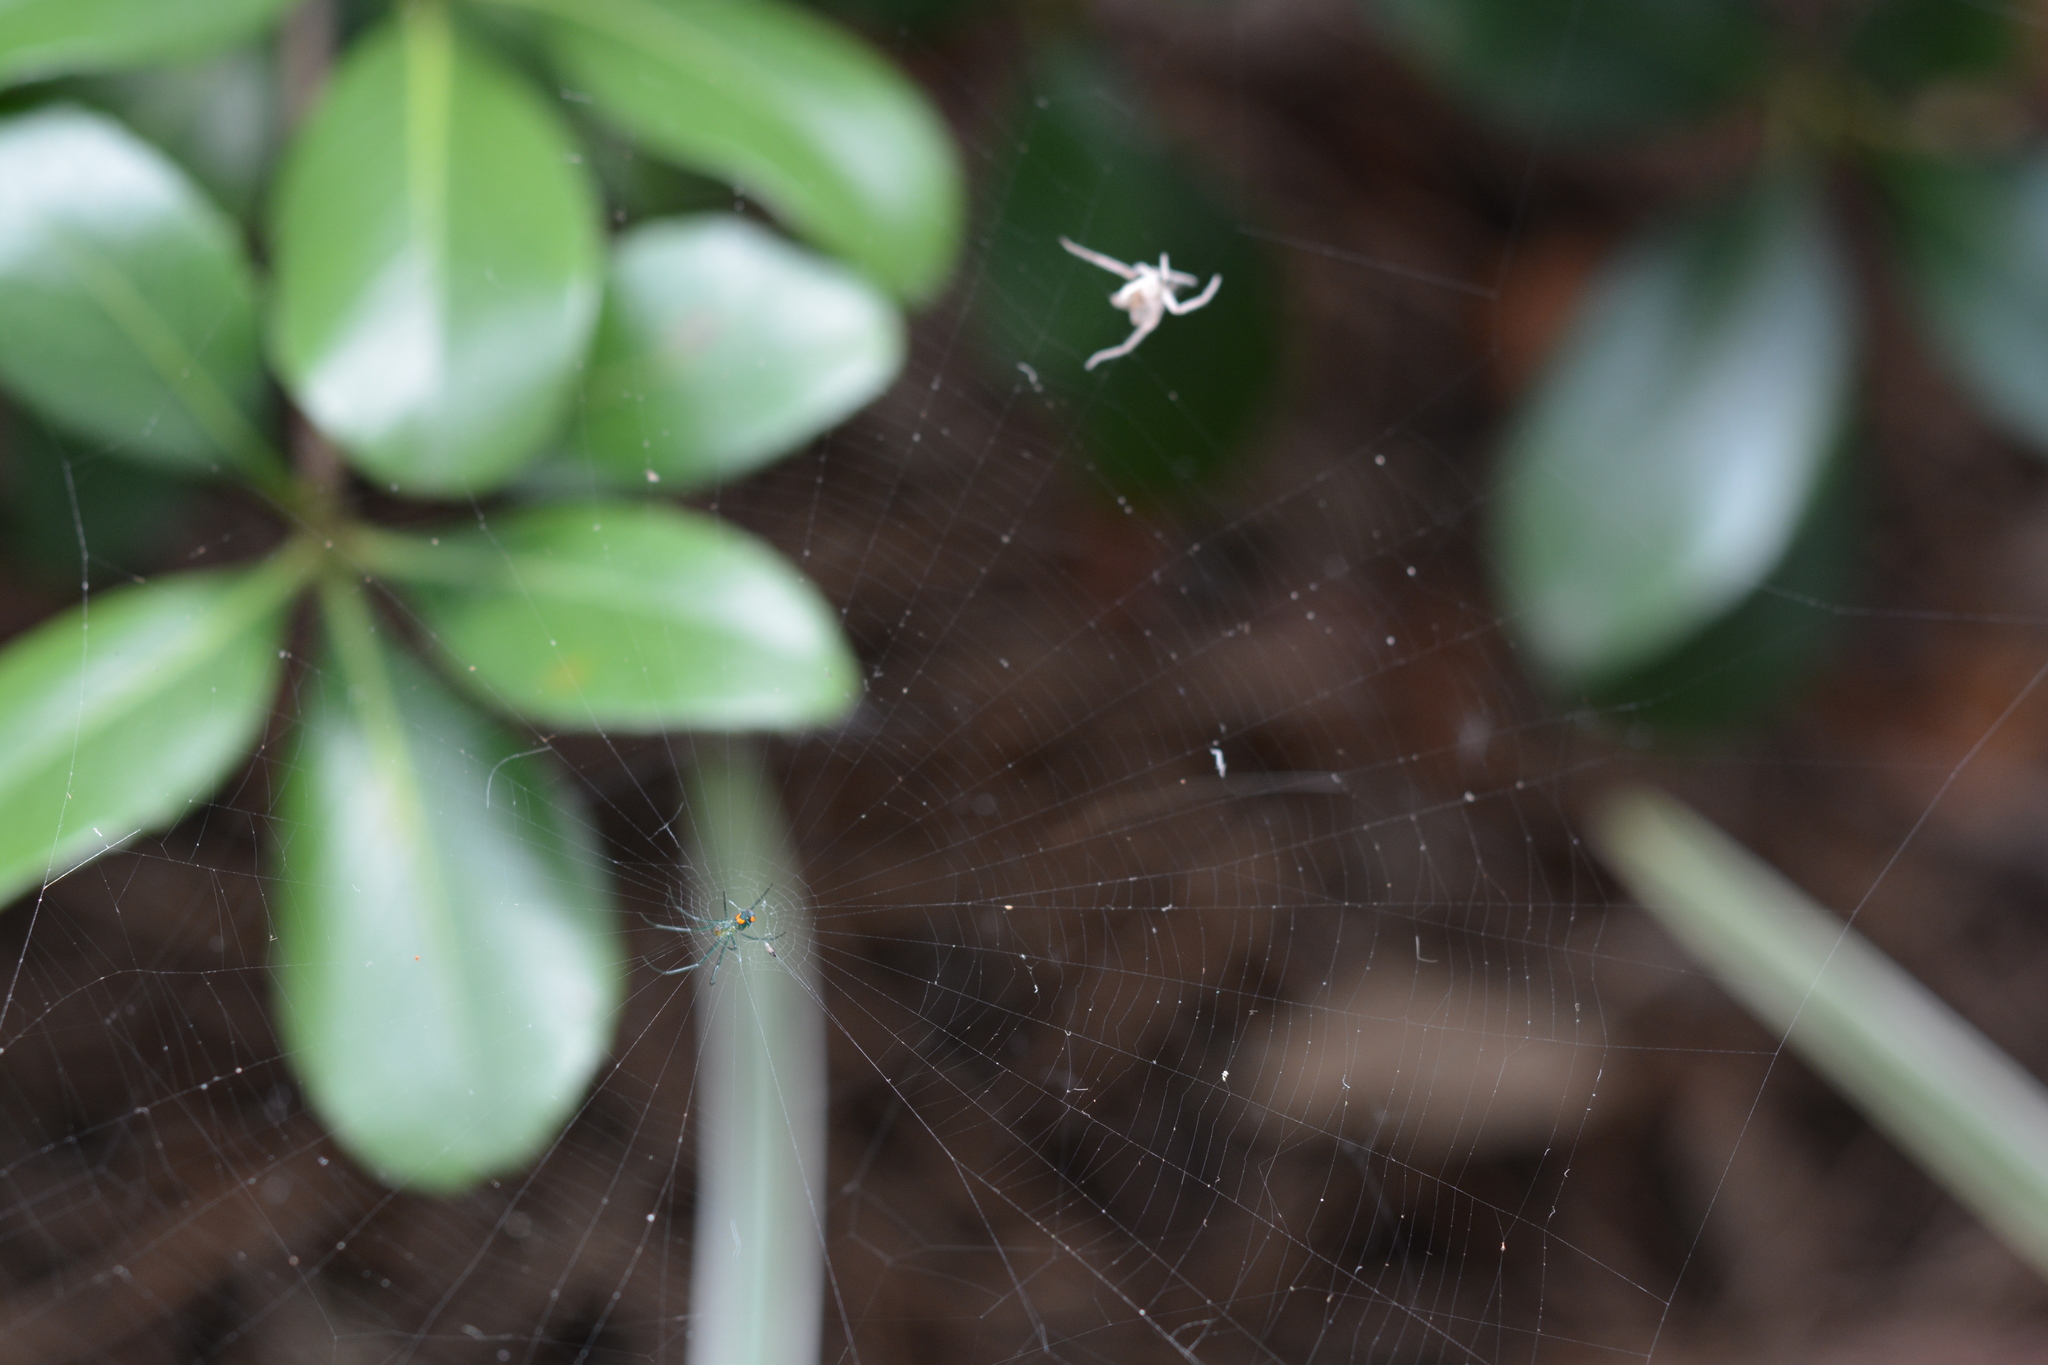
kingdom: Animalia
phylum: Arthropoda
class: Arachnida
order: Araneae
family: Tetragnathidae
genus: Leucauge
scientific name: Leucauge argyrobapta
